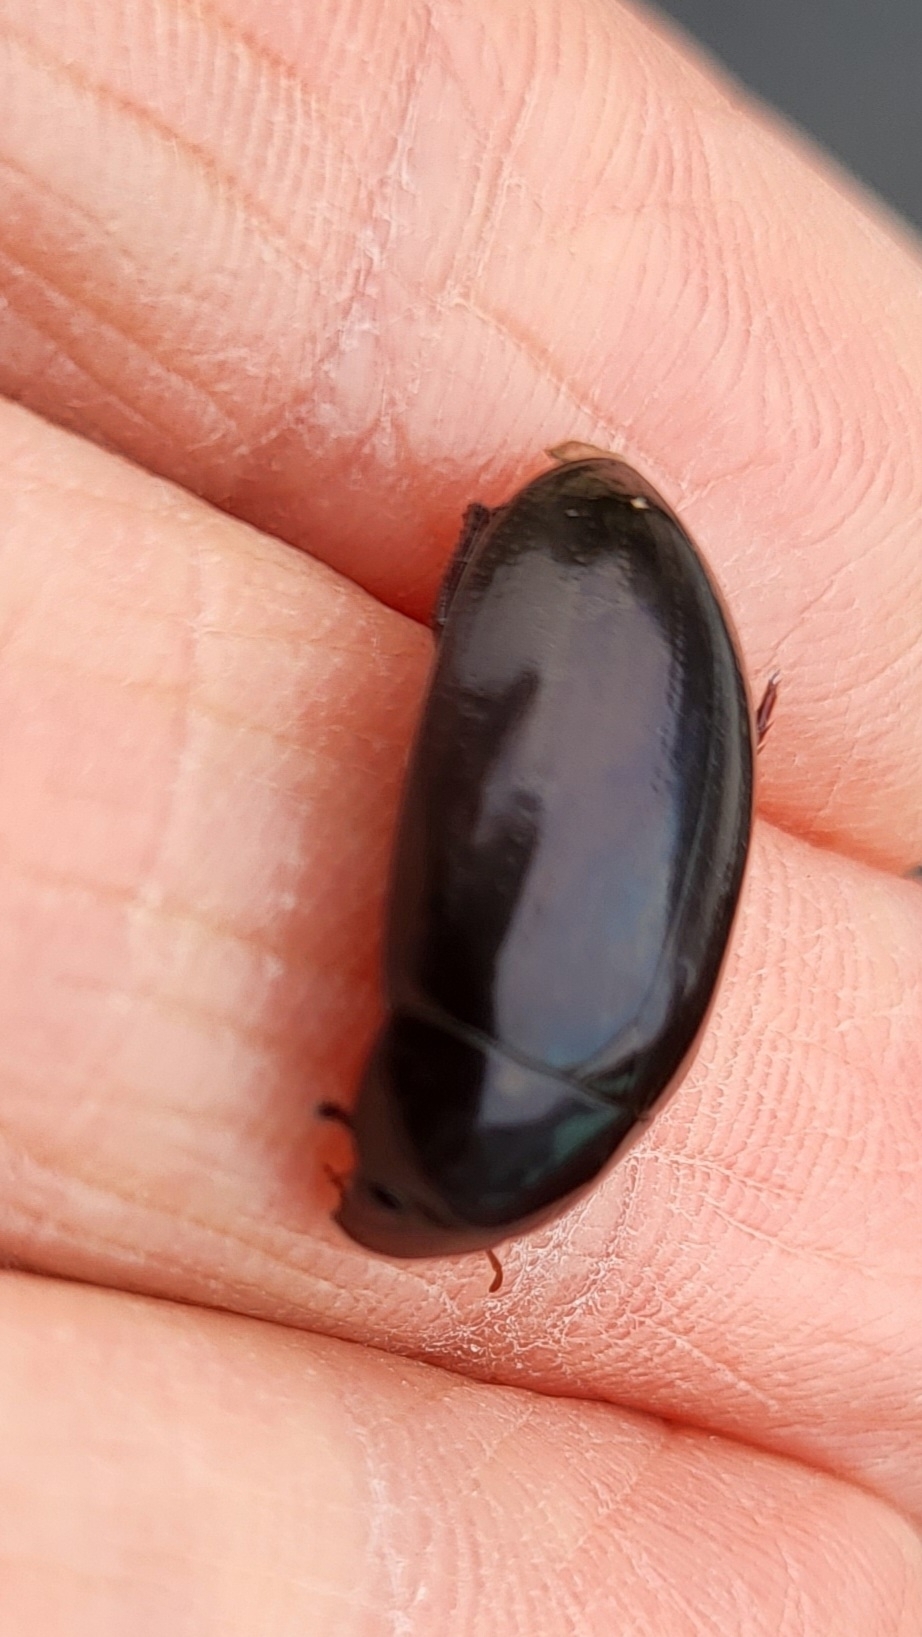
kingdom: Animalia
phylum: Arthropoda
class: Insecta
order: Coleoptera
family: Hydrophilidae
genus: Hydrochara
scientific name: Hydrochara
